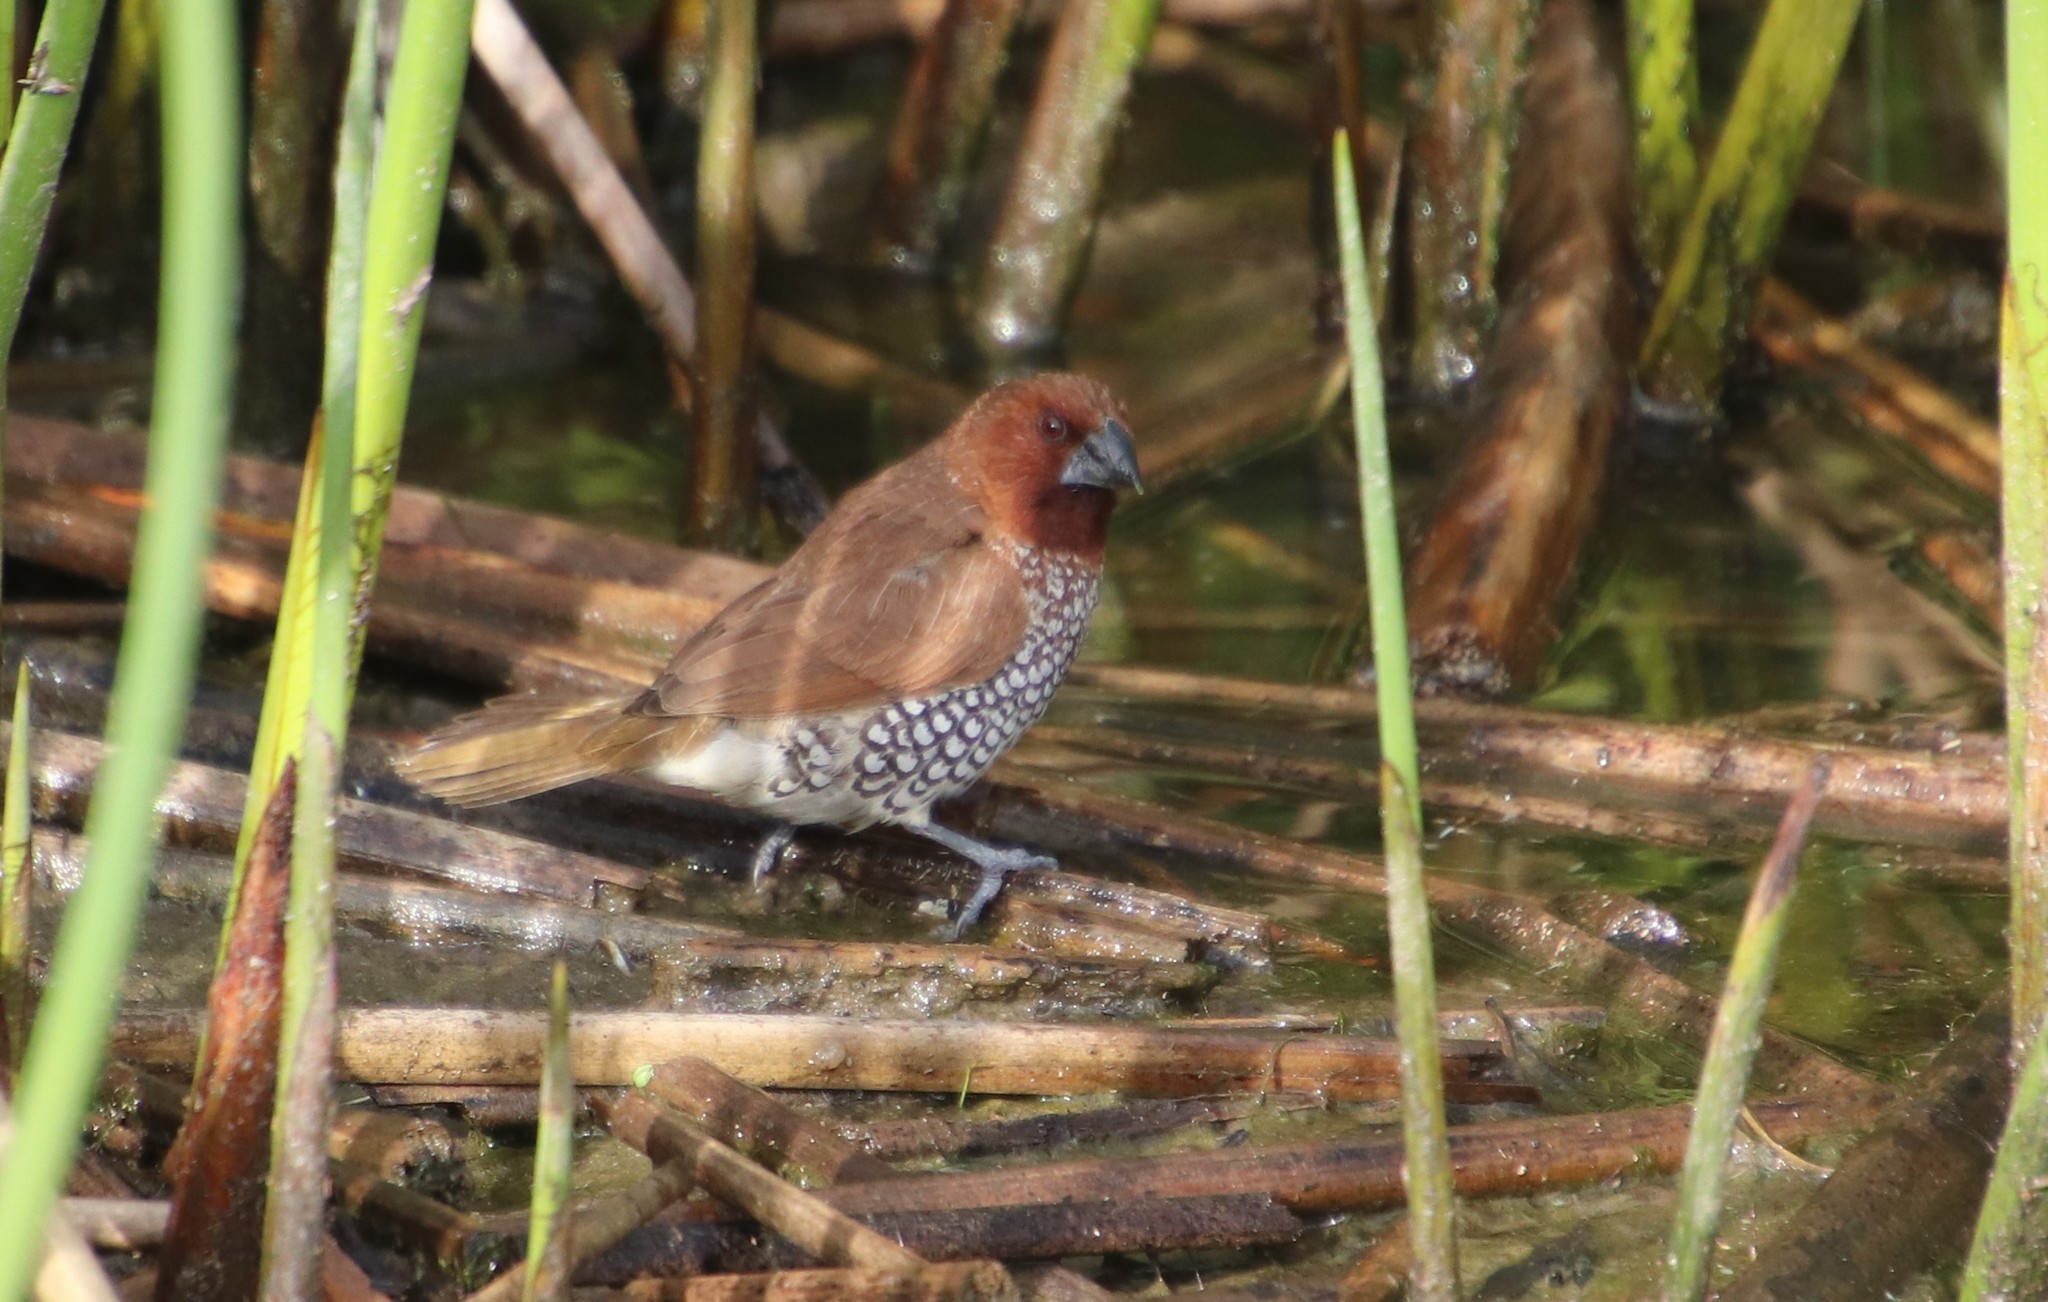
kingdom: Animalia
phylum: Chordata
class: Aves
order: Passeriformes
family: Estrildidae
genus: Lonchura
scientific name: Lonchura punctulata
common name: Scaly-breasted munia
